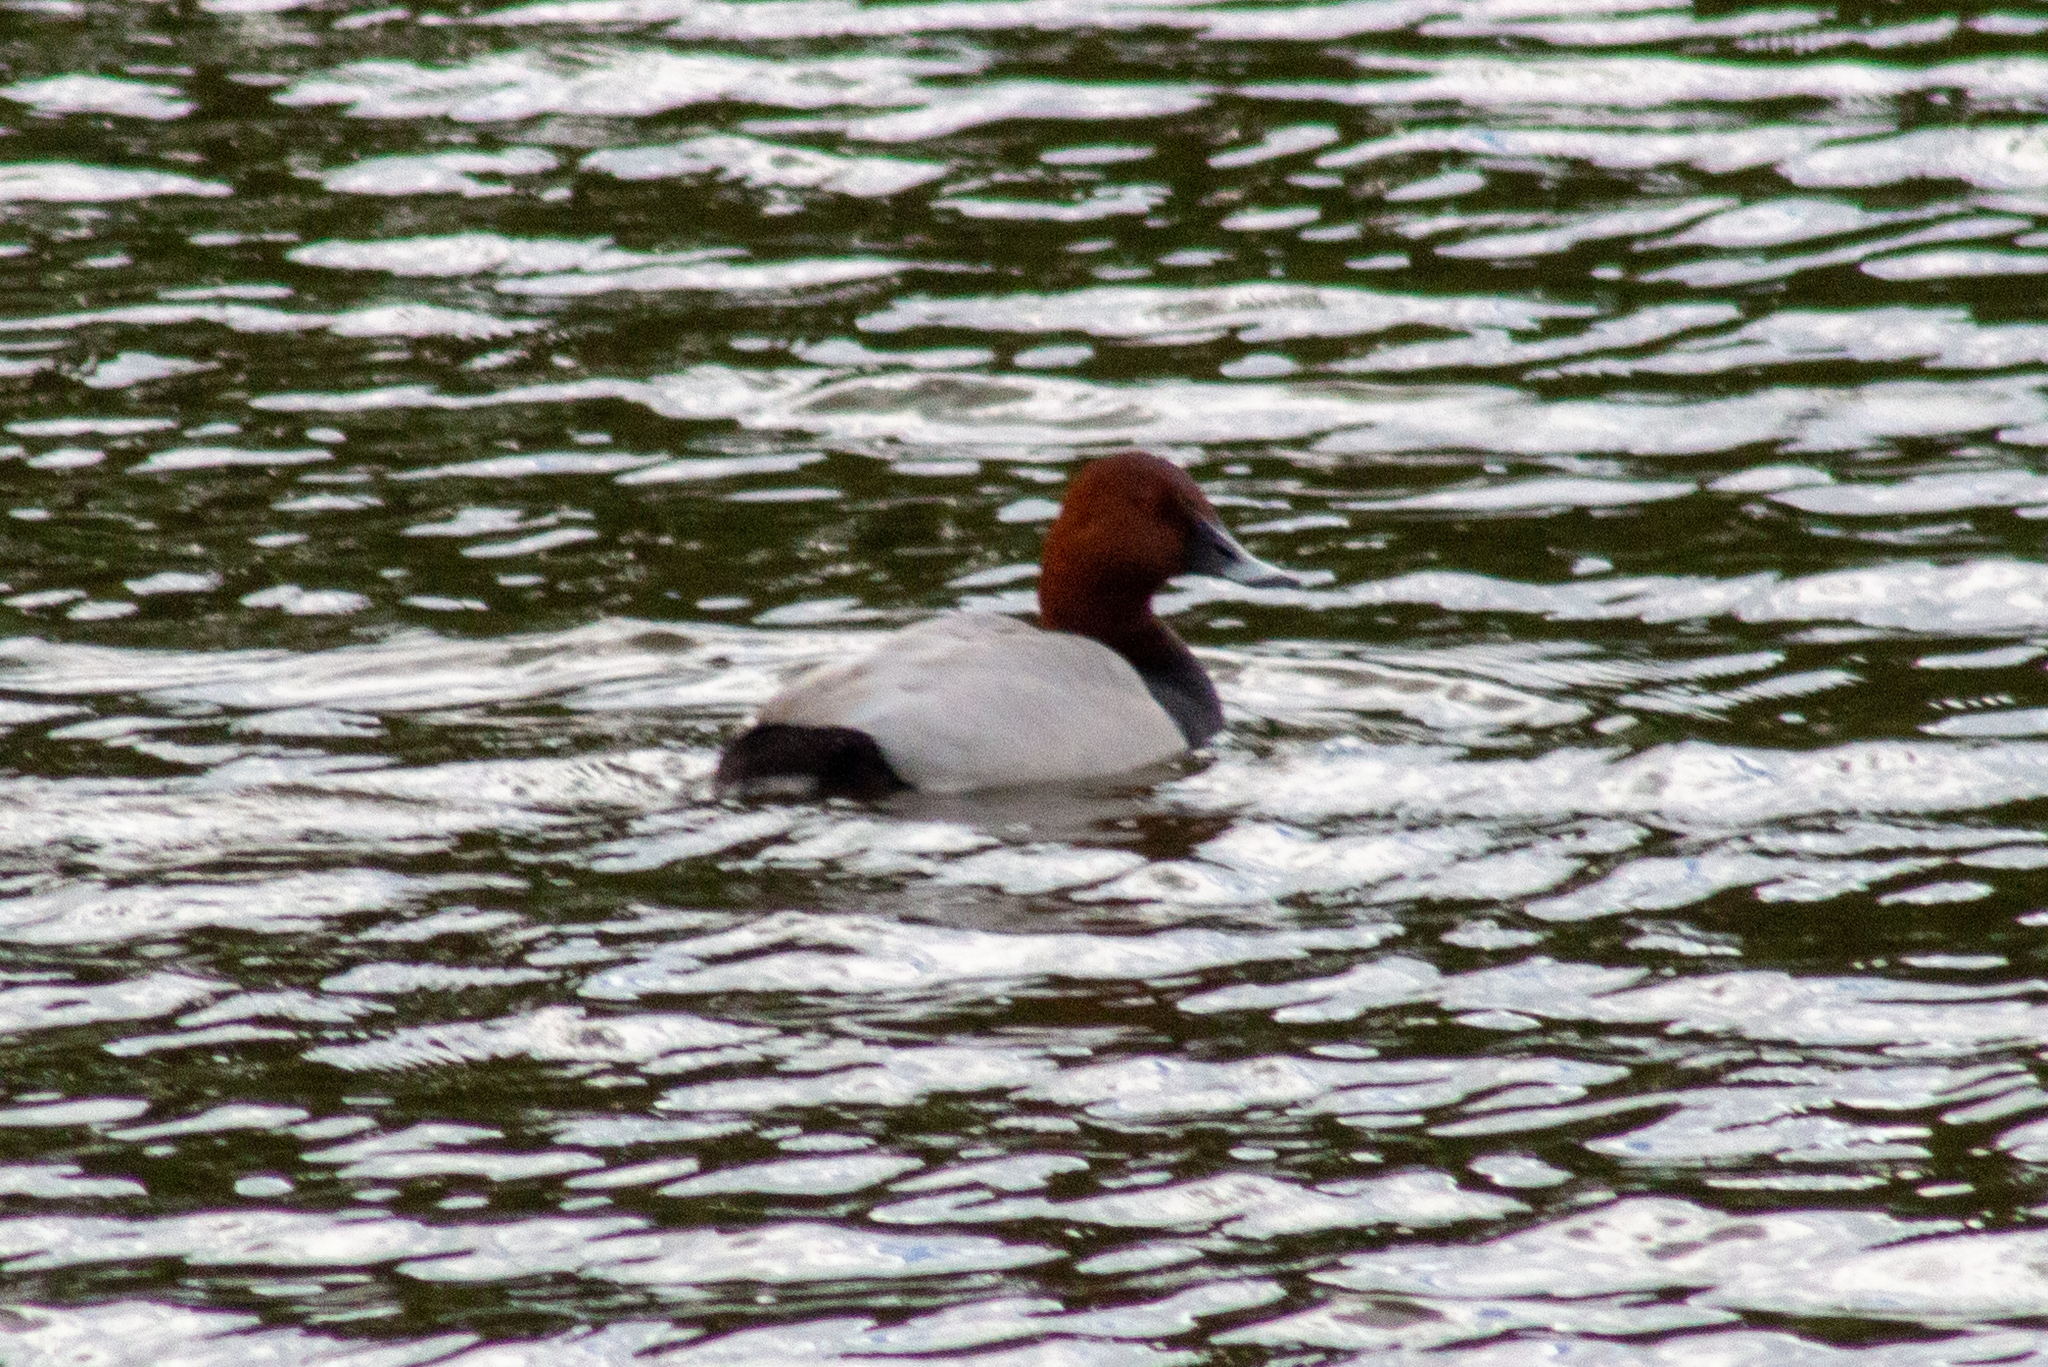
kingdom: Animalia
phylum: Chordata
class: Aves
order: Anseriformes
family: Anatidae
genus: Aythya
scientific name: Aythya ferina
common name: Common pochard
